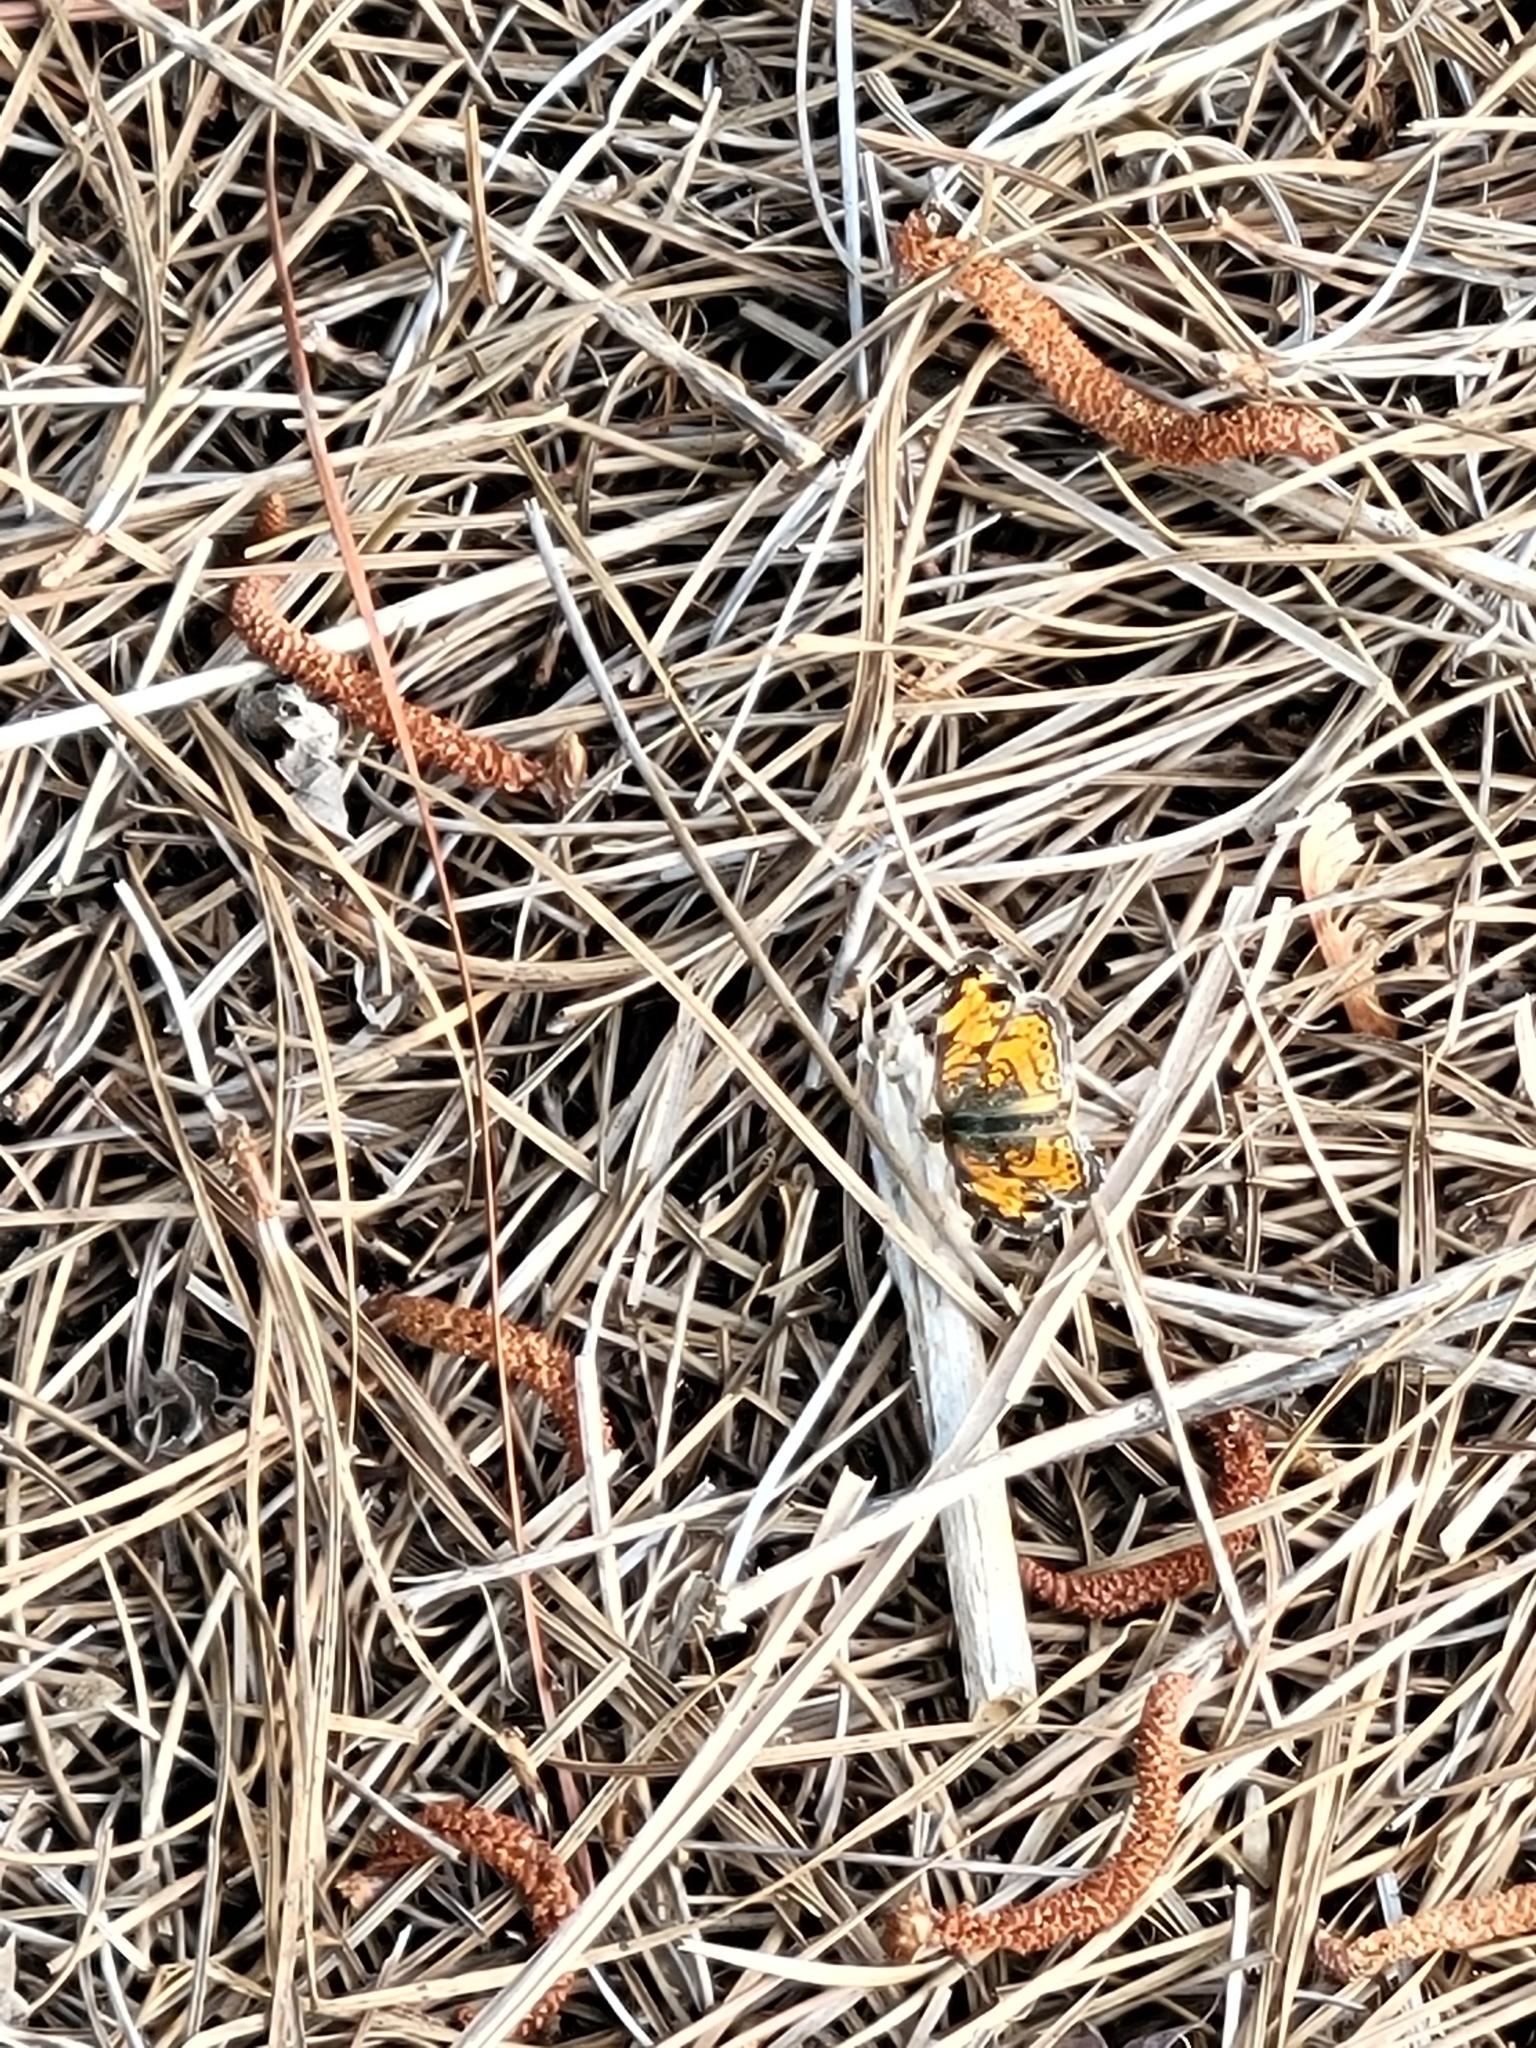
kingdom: Animalia
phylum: Arthropoda
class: Insecta
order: Lepidoptera
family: Nymphalidae
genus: Phyciodes
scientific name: Phyciodes tharos
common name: Pearl crescent
